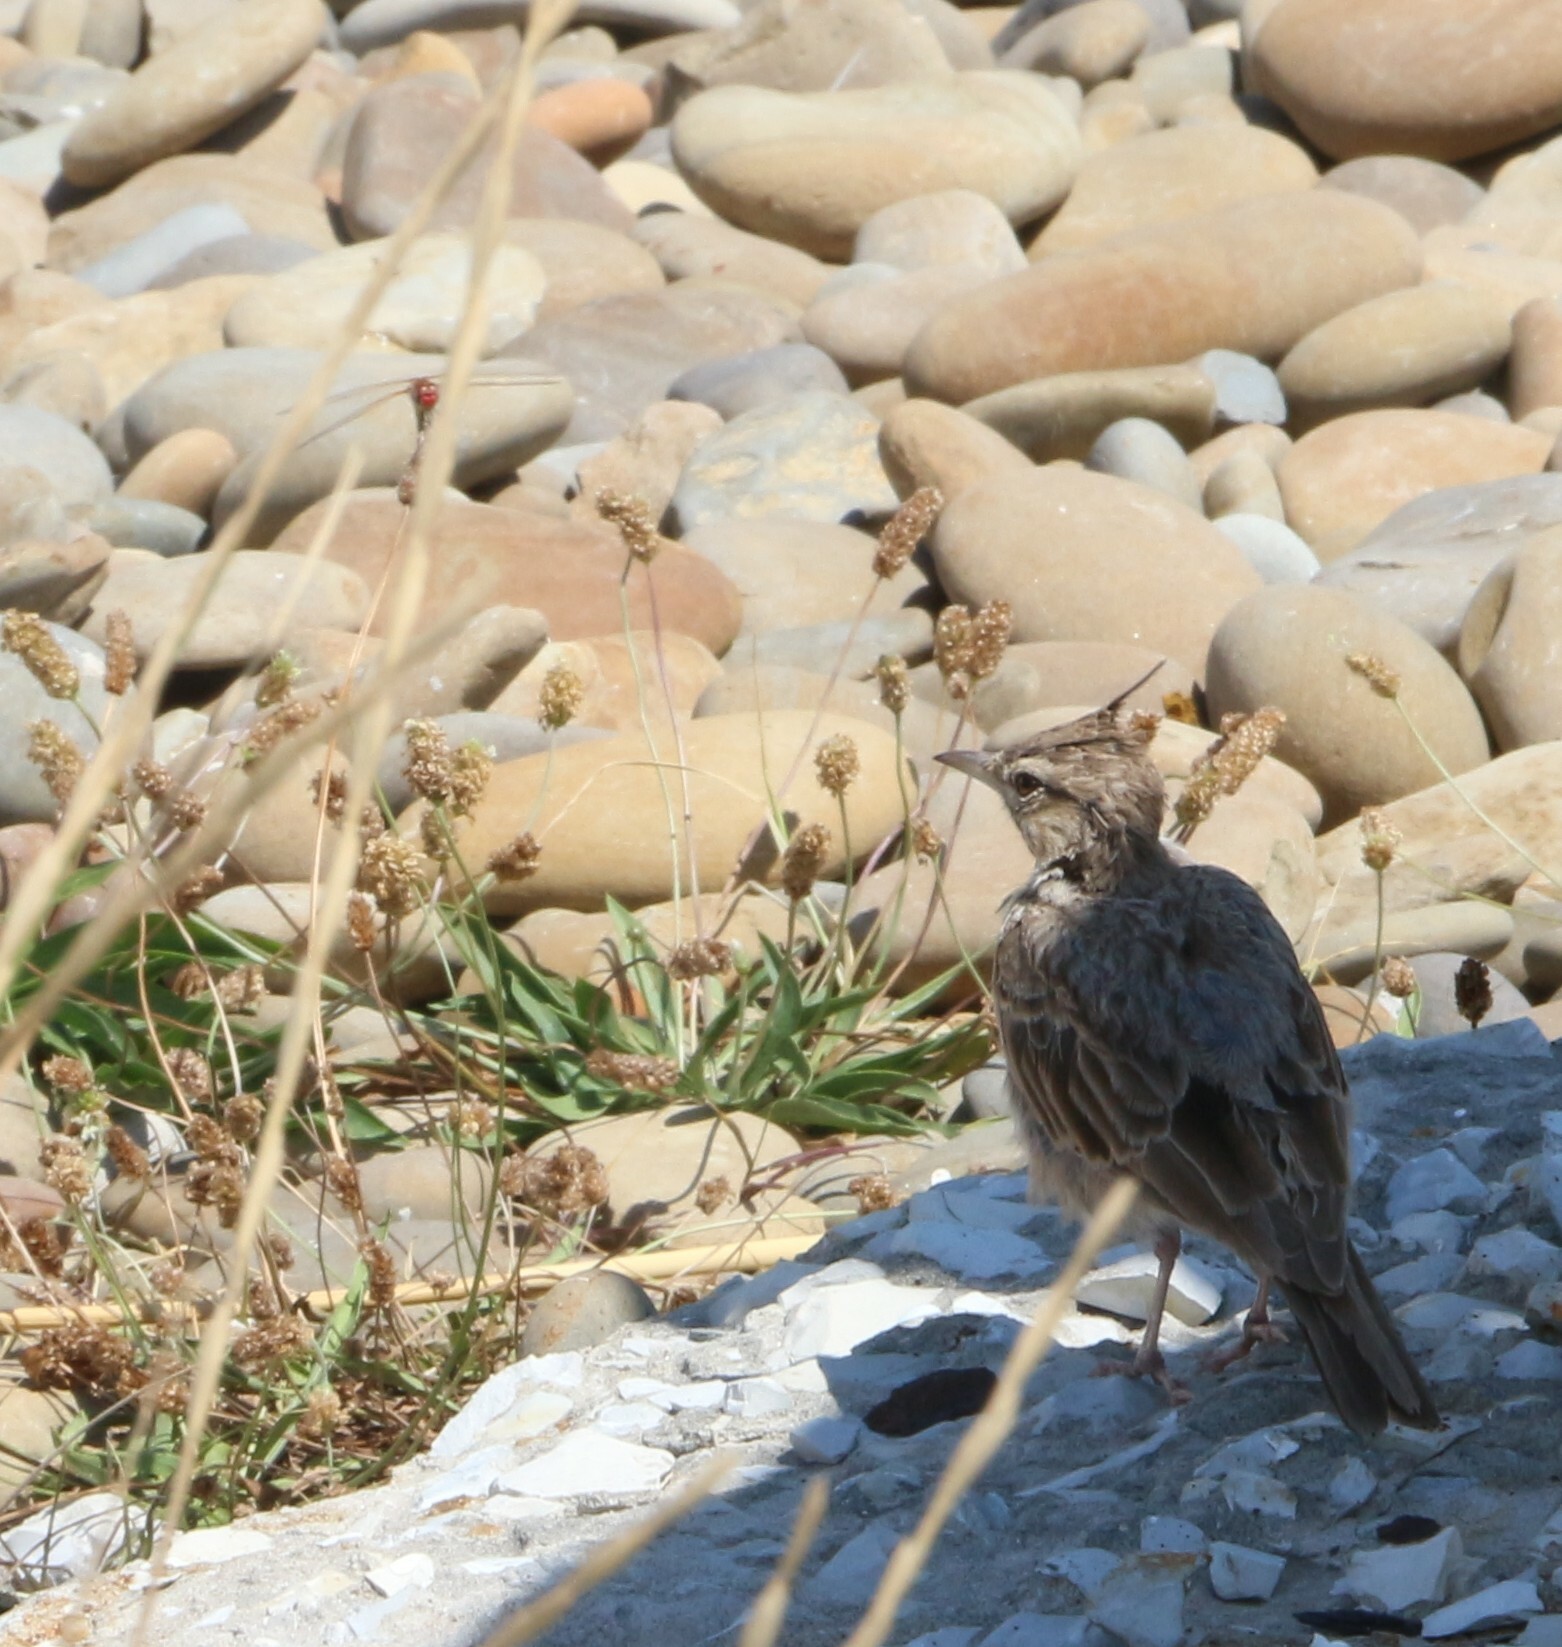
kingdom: Animalia
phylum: Chordata
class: Aves
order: Passeriformes
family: Alaudidae
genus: Galerida
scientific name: Galerida cristata
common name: Crested lark
